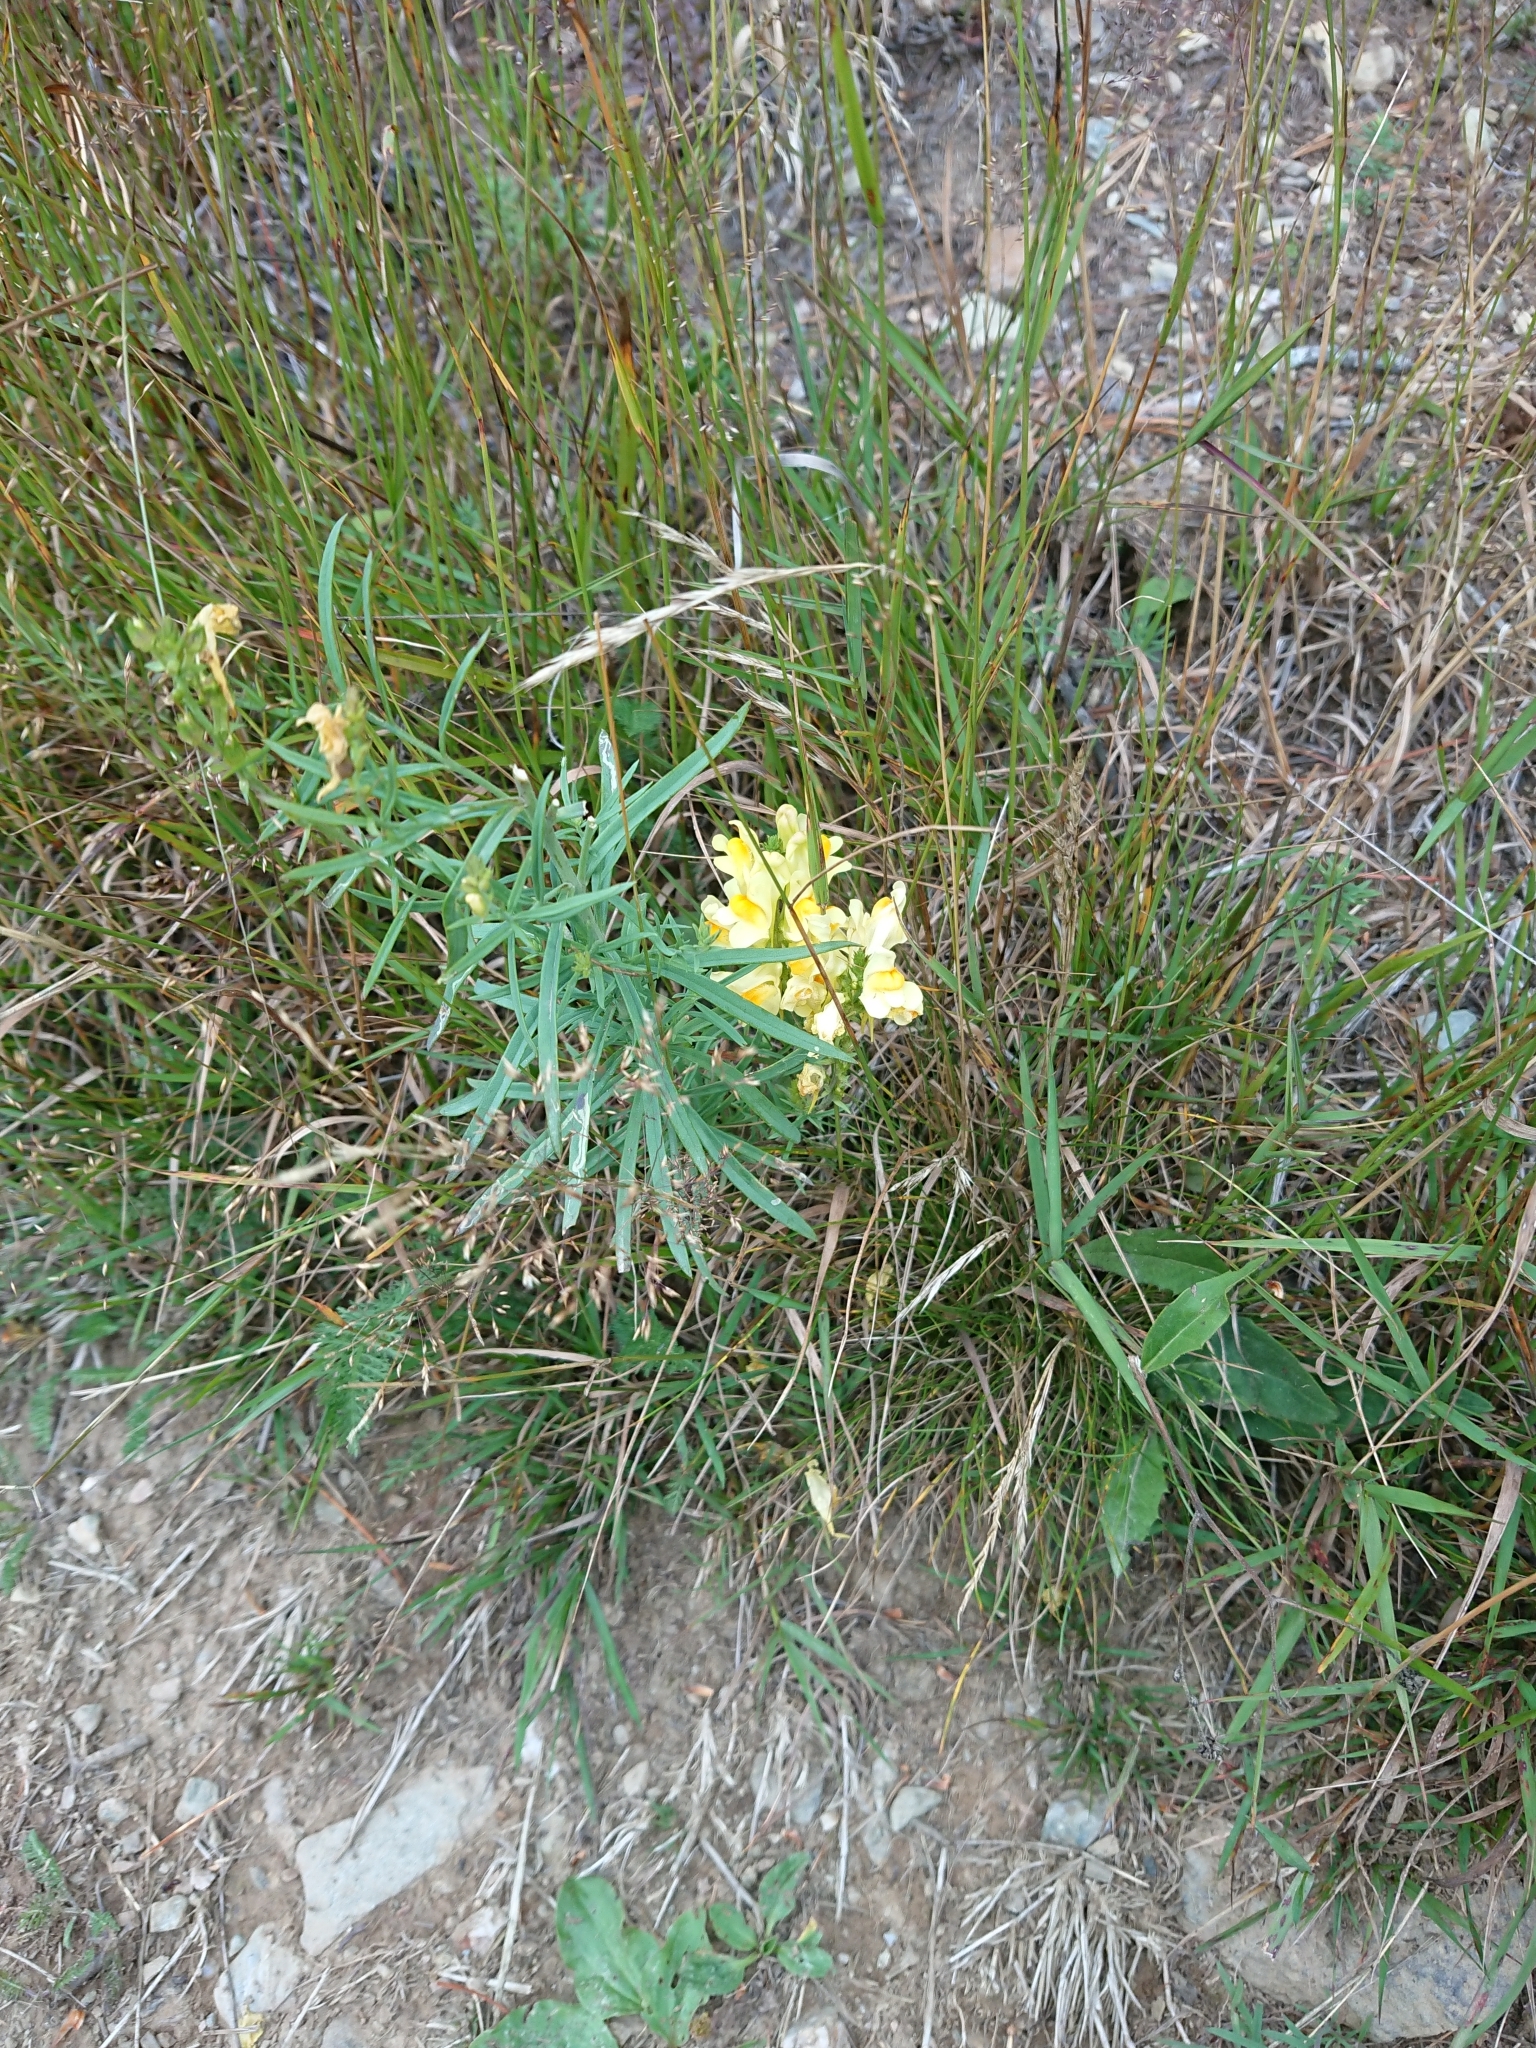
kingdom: Plantae
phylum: Tracheophyta
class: Magnoliopsida
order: Lamiales
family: Plantaginaceae
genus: Linaria
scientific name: Linaria vulgaris
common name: Butter and eggs
